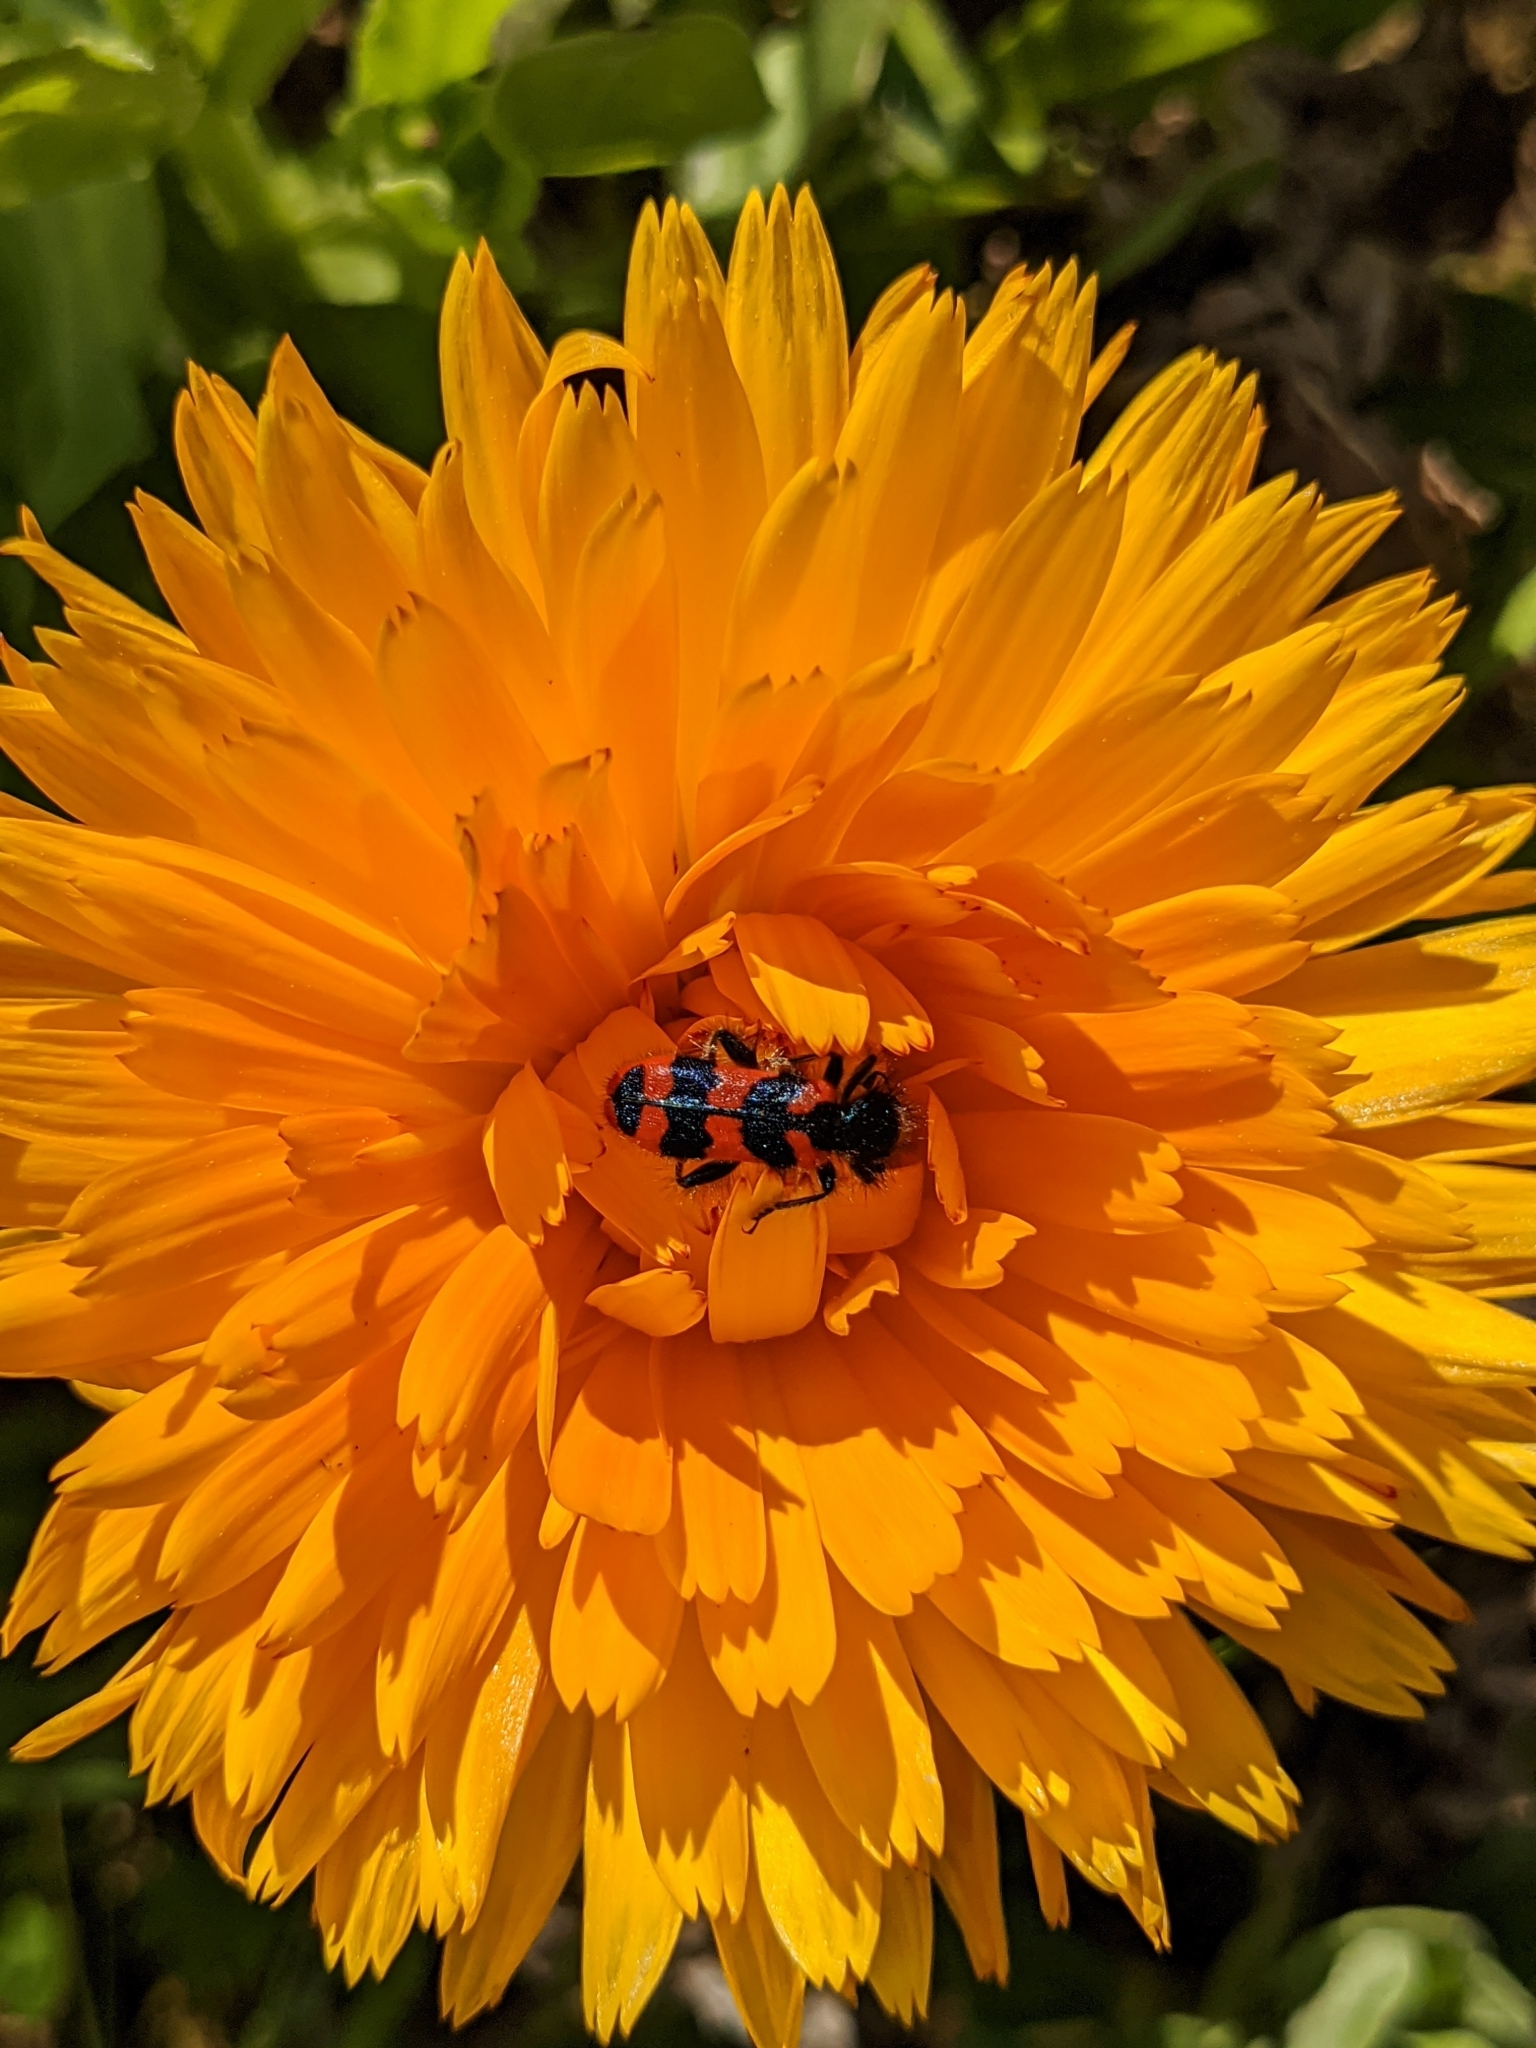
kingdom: Animalia
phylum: Arthropoda
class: Insecta
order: Coleoptera
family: Cleridae
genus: Trichodes
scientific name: Trichodes alvearius
